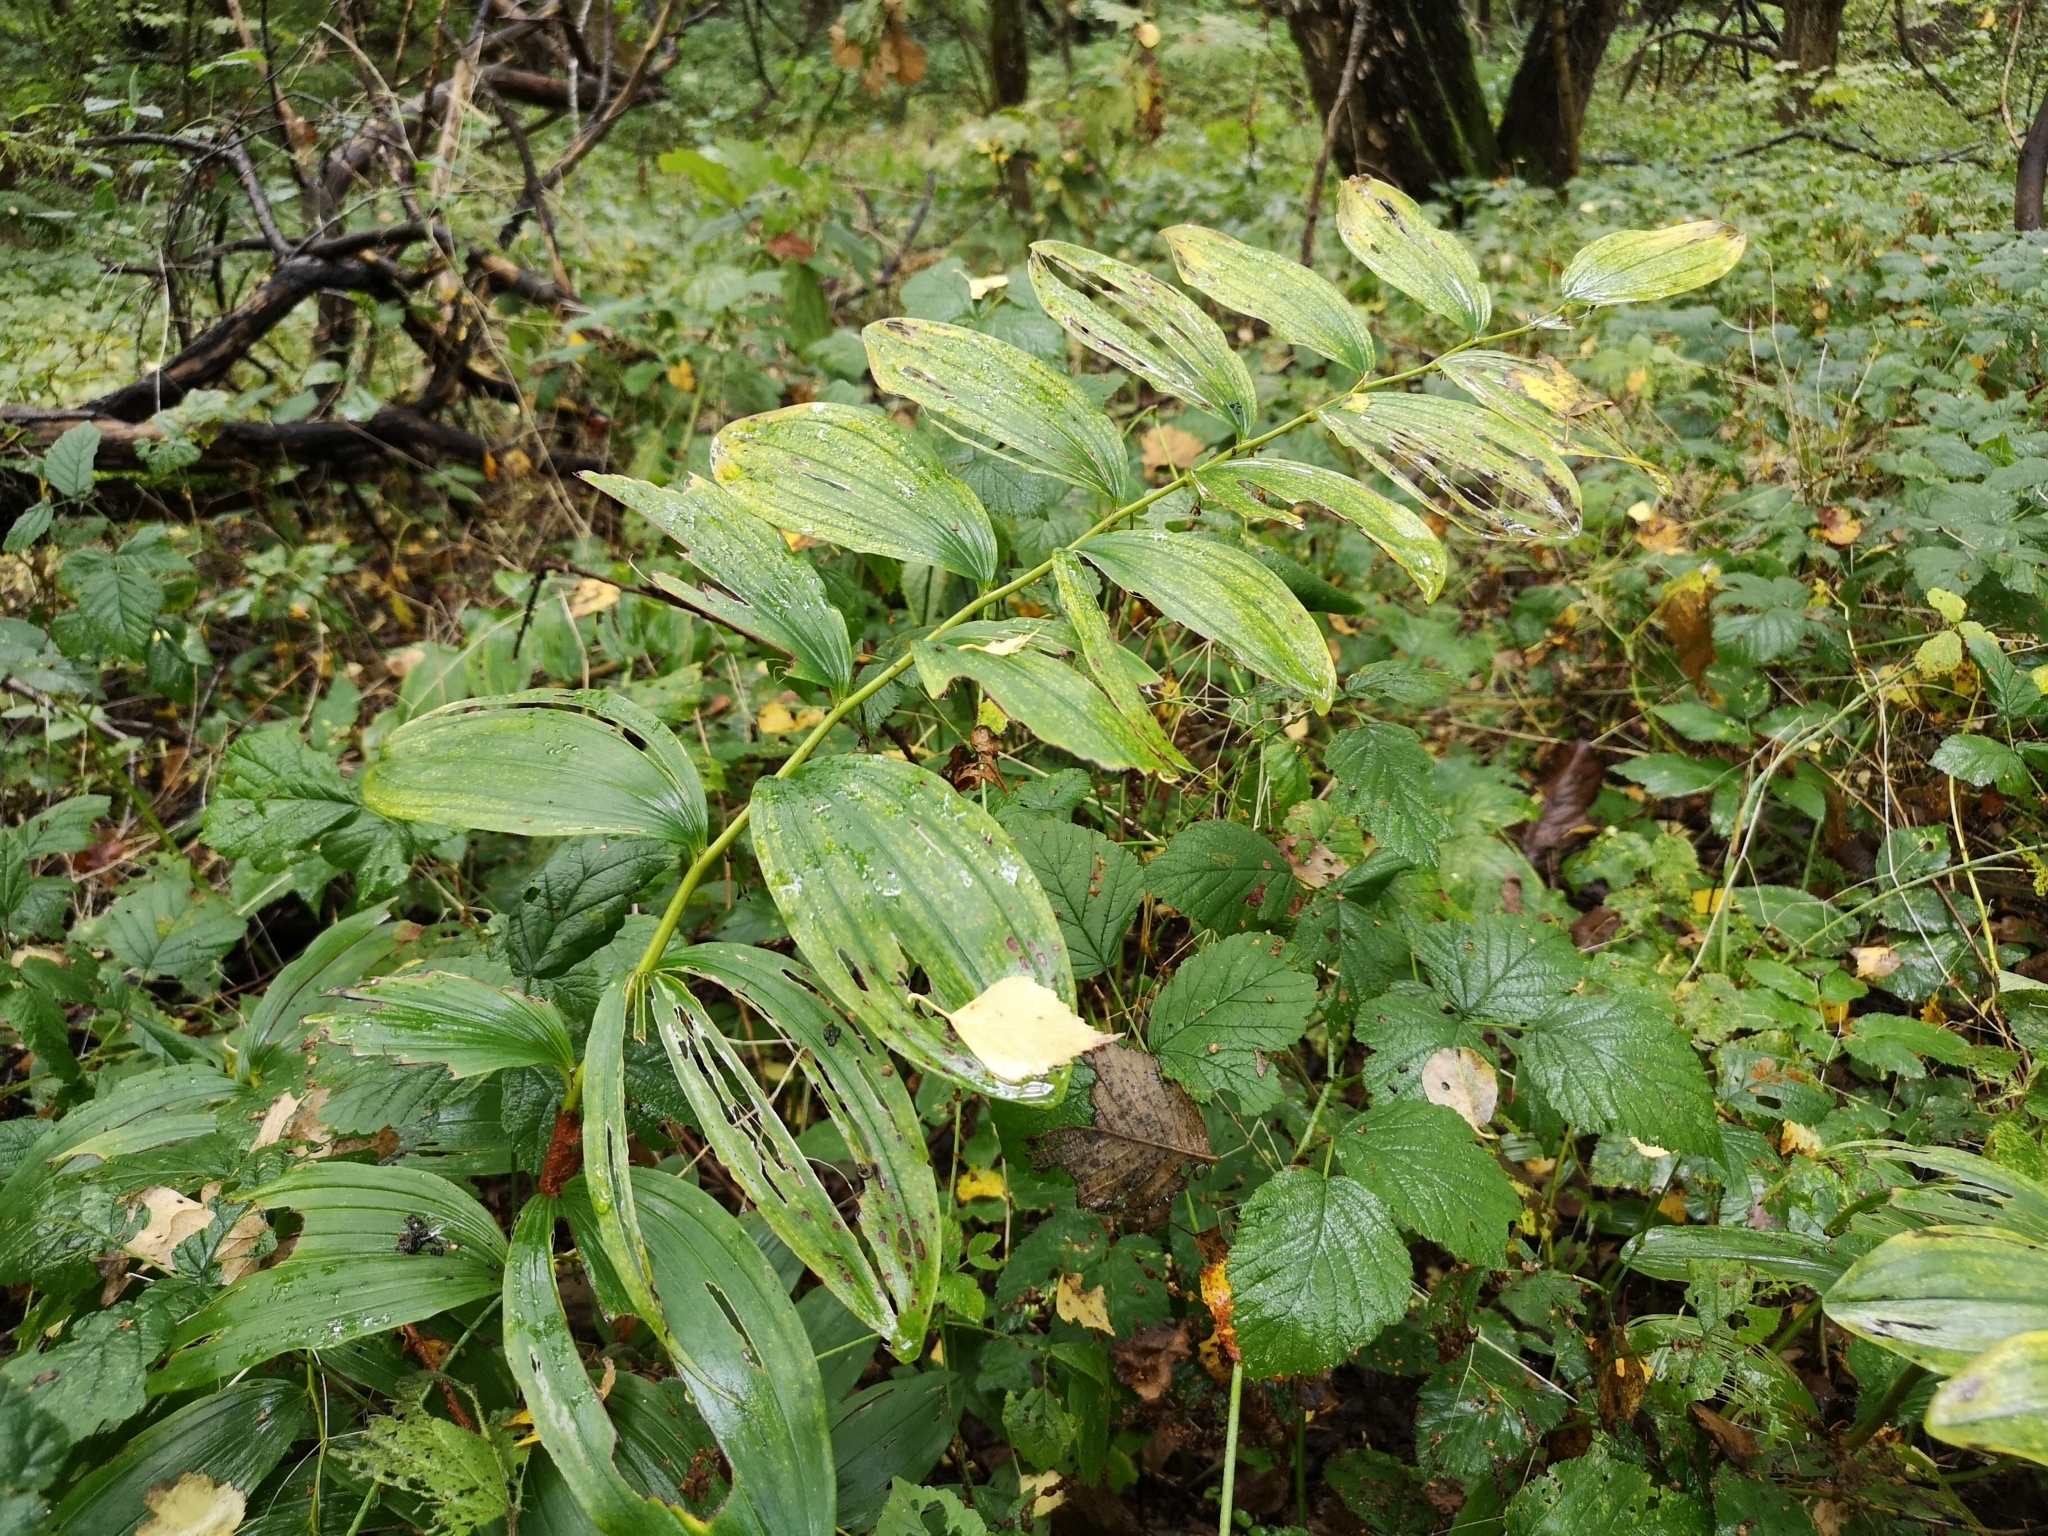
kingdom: Plantae
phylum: Tracheophyta
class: Liliopsida
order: Asparagales
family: Asparagaceae
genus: Polygonatum
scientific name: Polygonatum multiflorum
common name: Solomon's-seal
